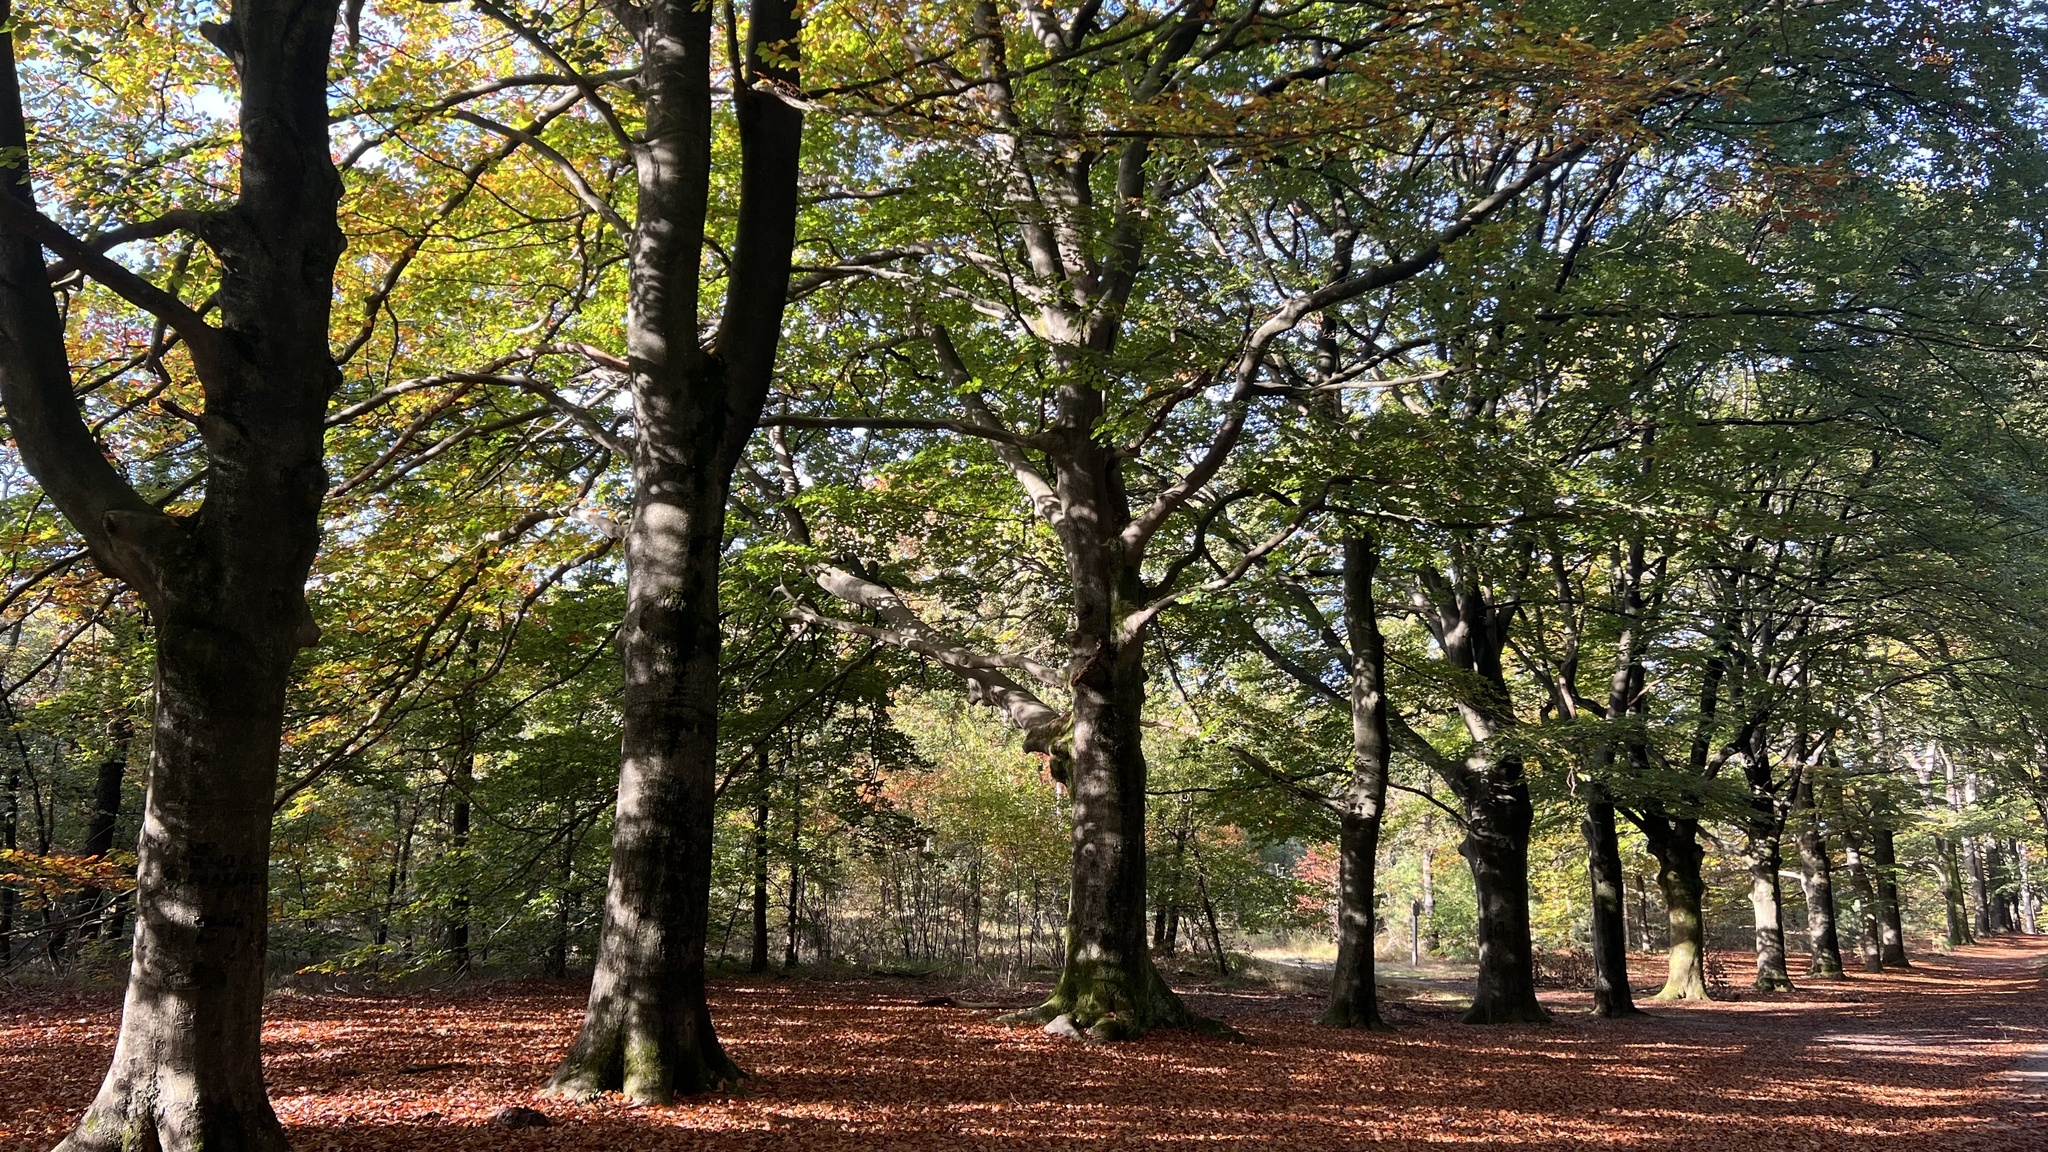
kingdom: Plantae
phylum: Tracheophyta
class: Magnoliopsida
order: Fagales
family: Fagaceae
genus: Fagus
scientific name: Fagus sylvatica
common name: Beech
